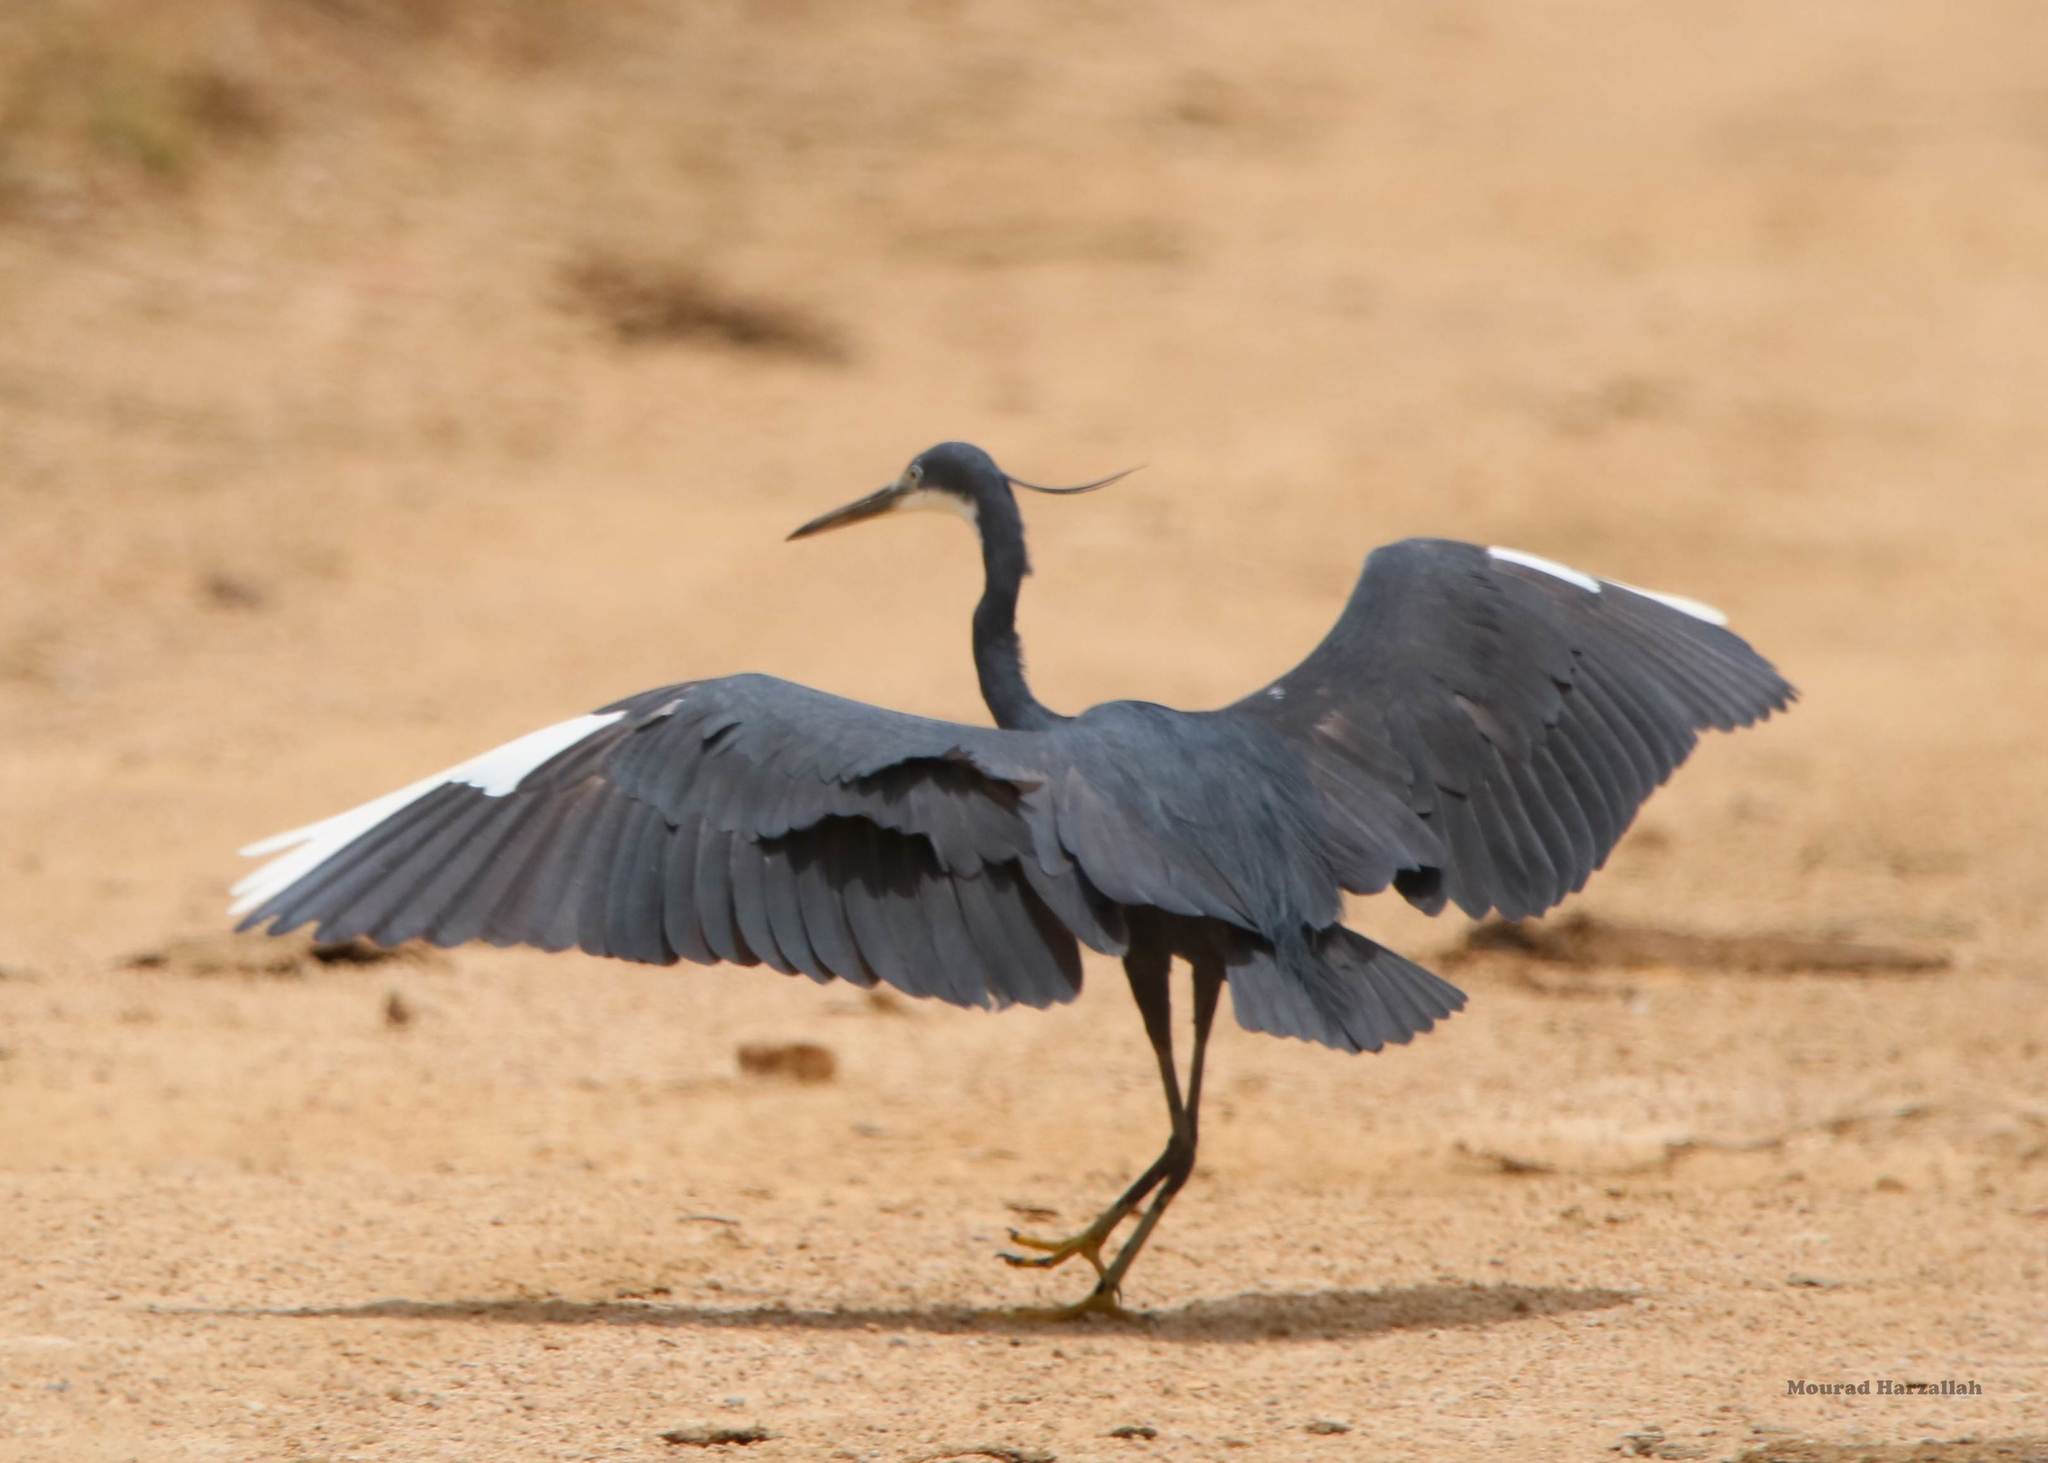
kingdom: Animalia
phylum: Chordata
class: Aves
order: Pelecaniformes
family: Ardeidae
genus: Egretta
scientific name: Egretta gularis
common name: Western reef-heron
